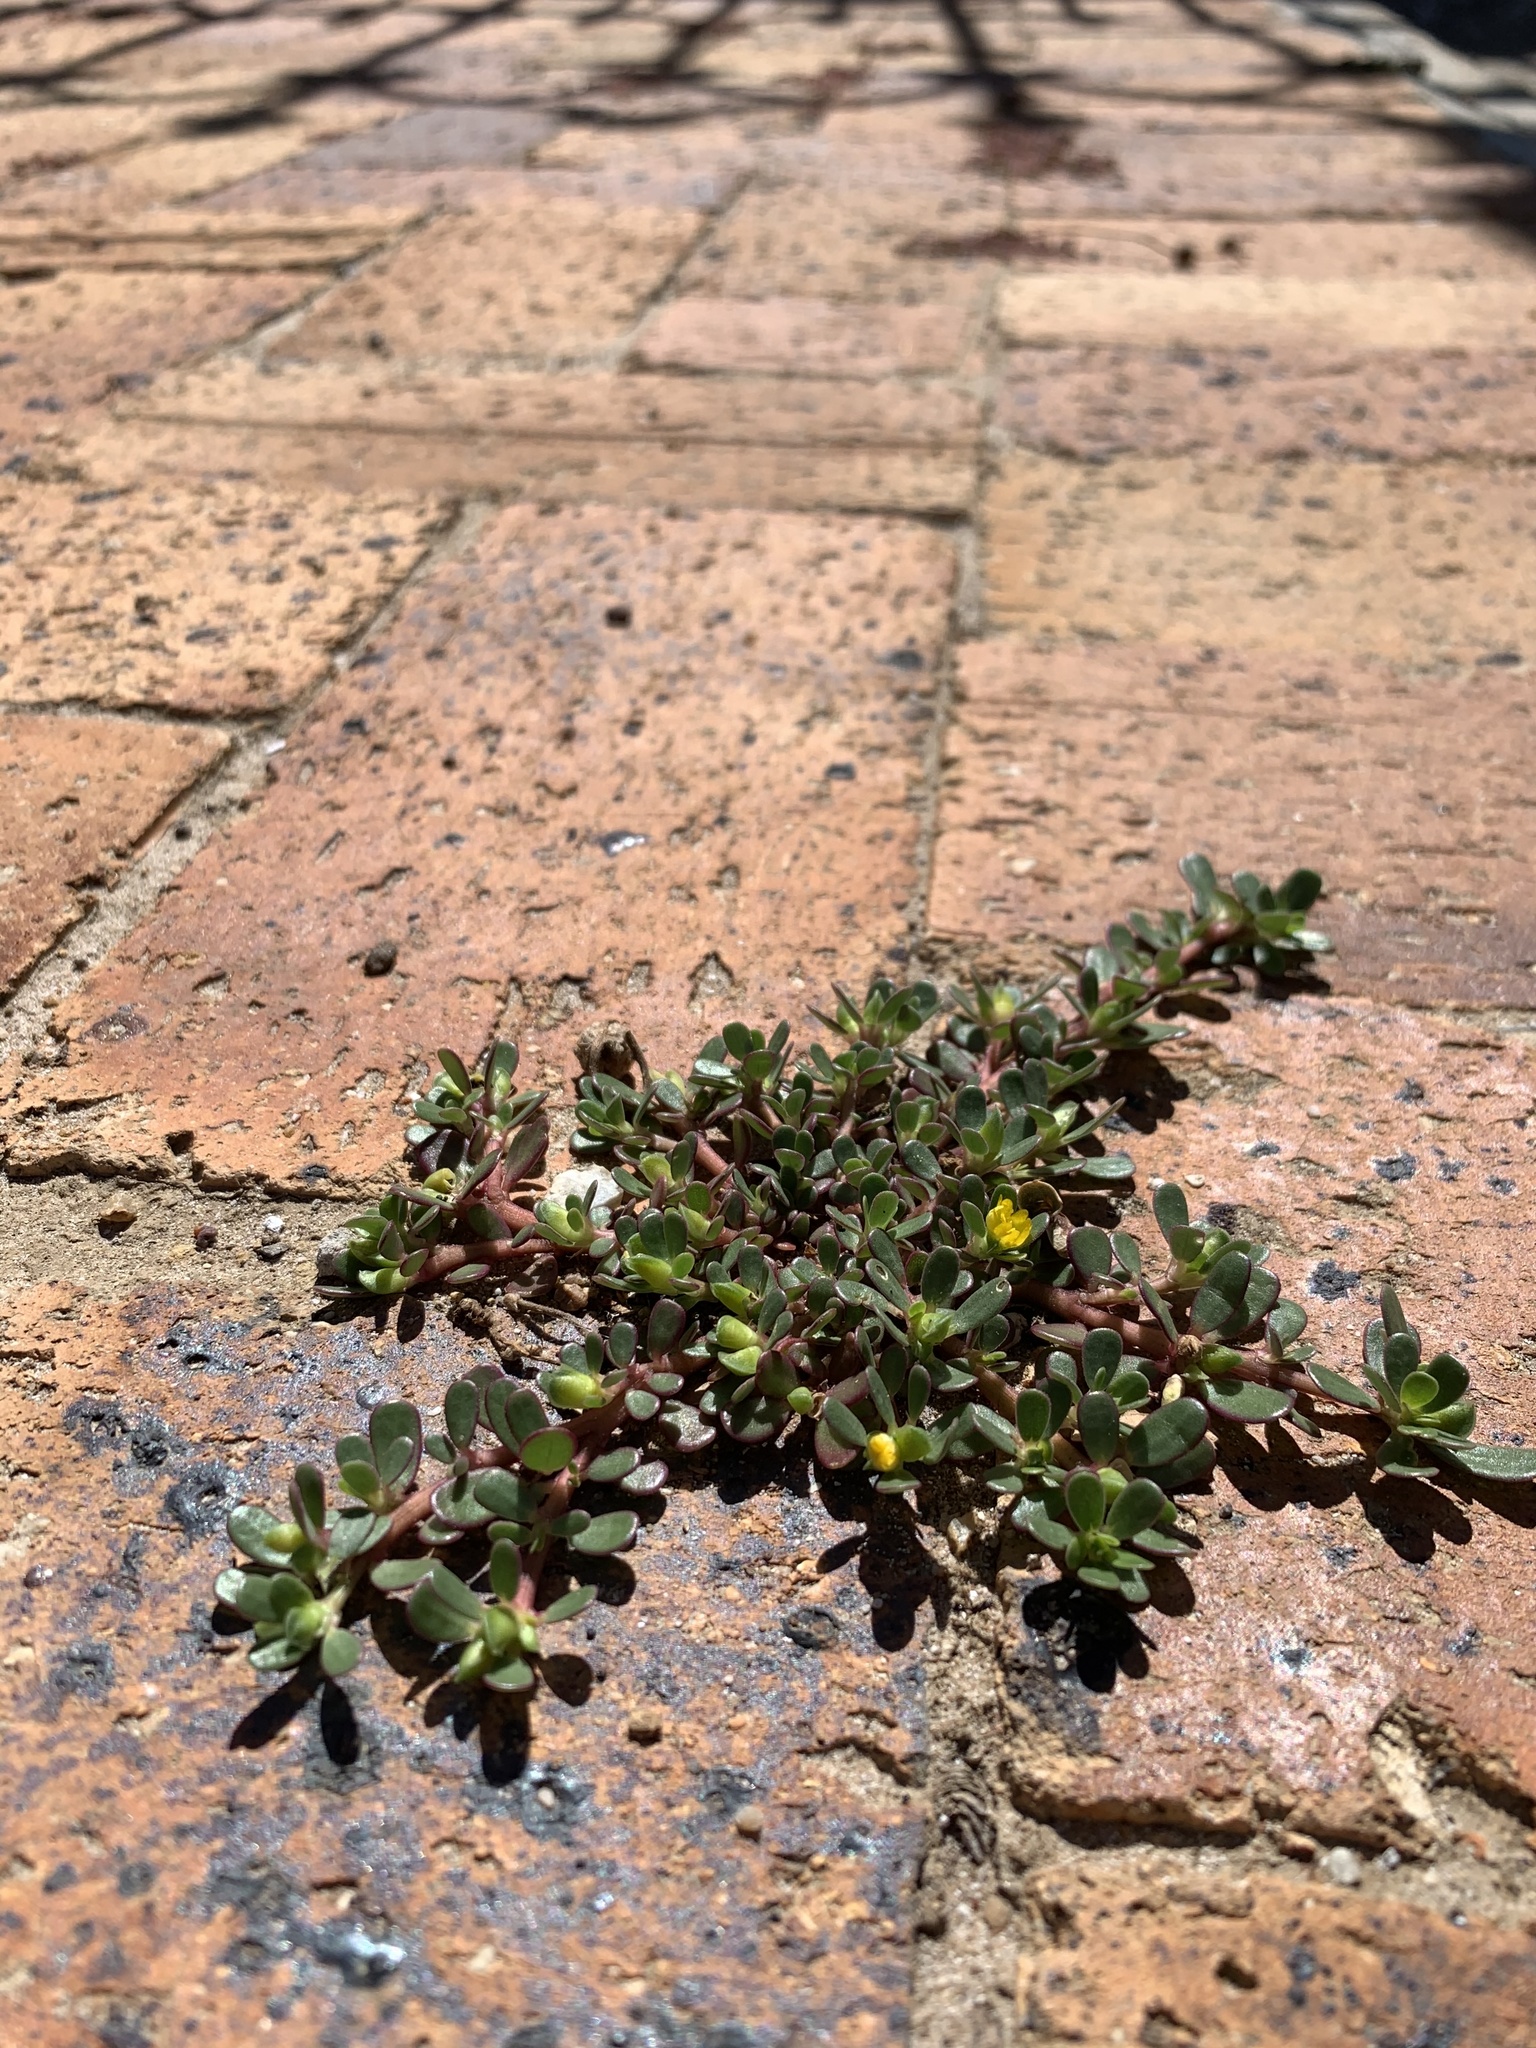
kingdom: Plantae
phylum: Tracheophyta
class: Magnoliopsida
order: Caryophyllales
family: Portulacaceae
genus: Portulaca
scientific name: Portulaca oleracea
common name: Common purslane
